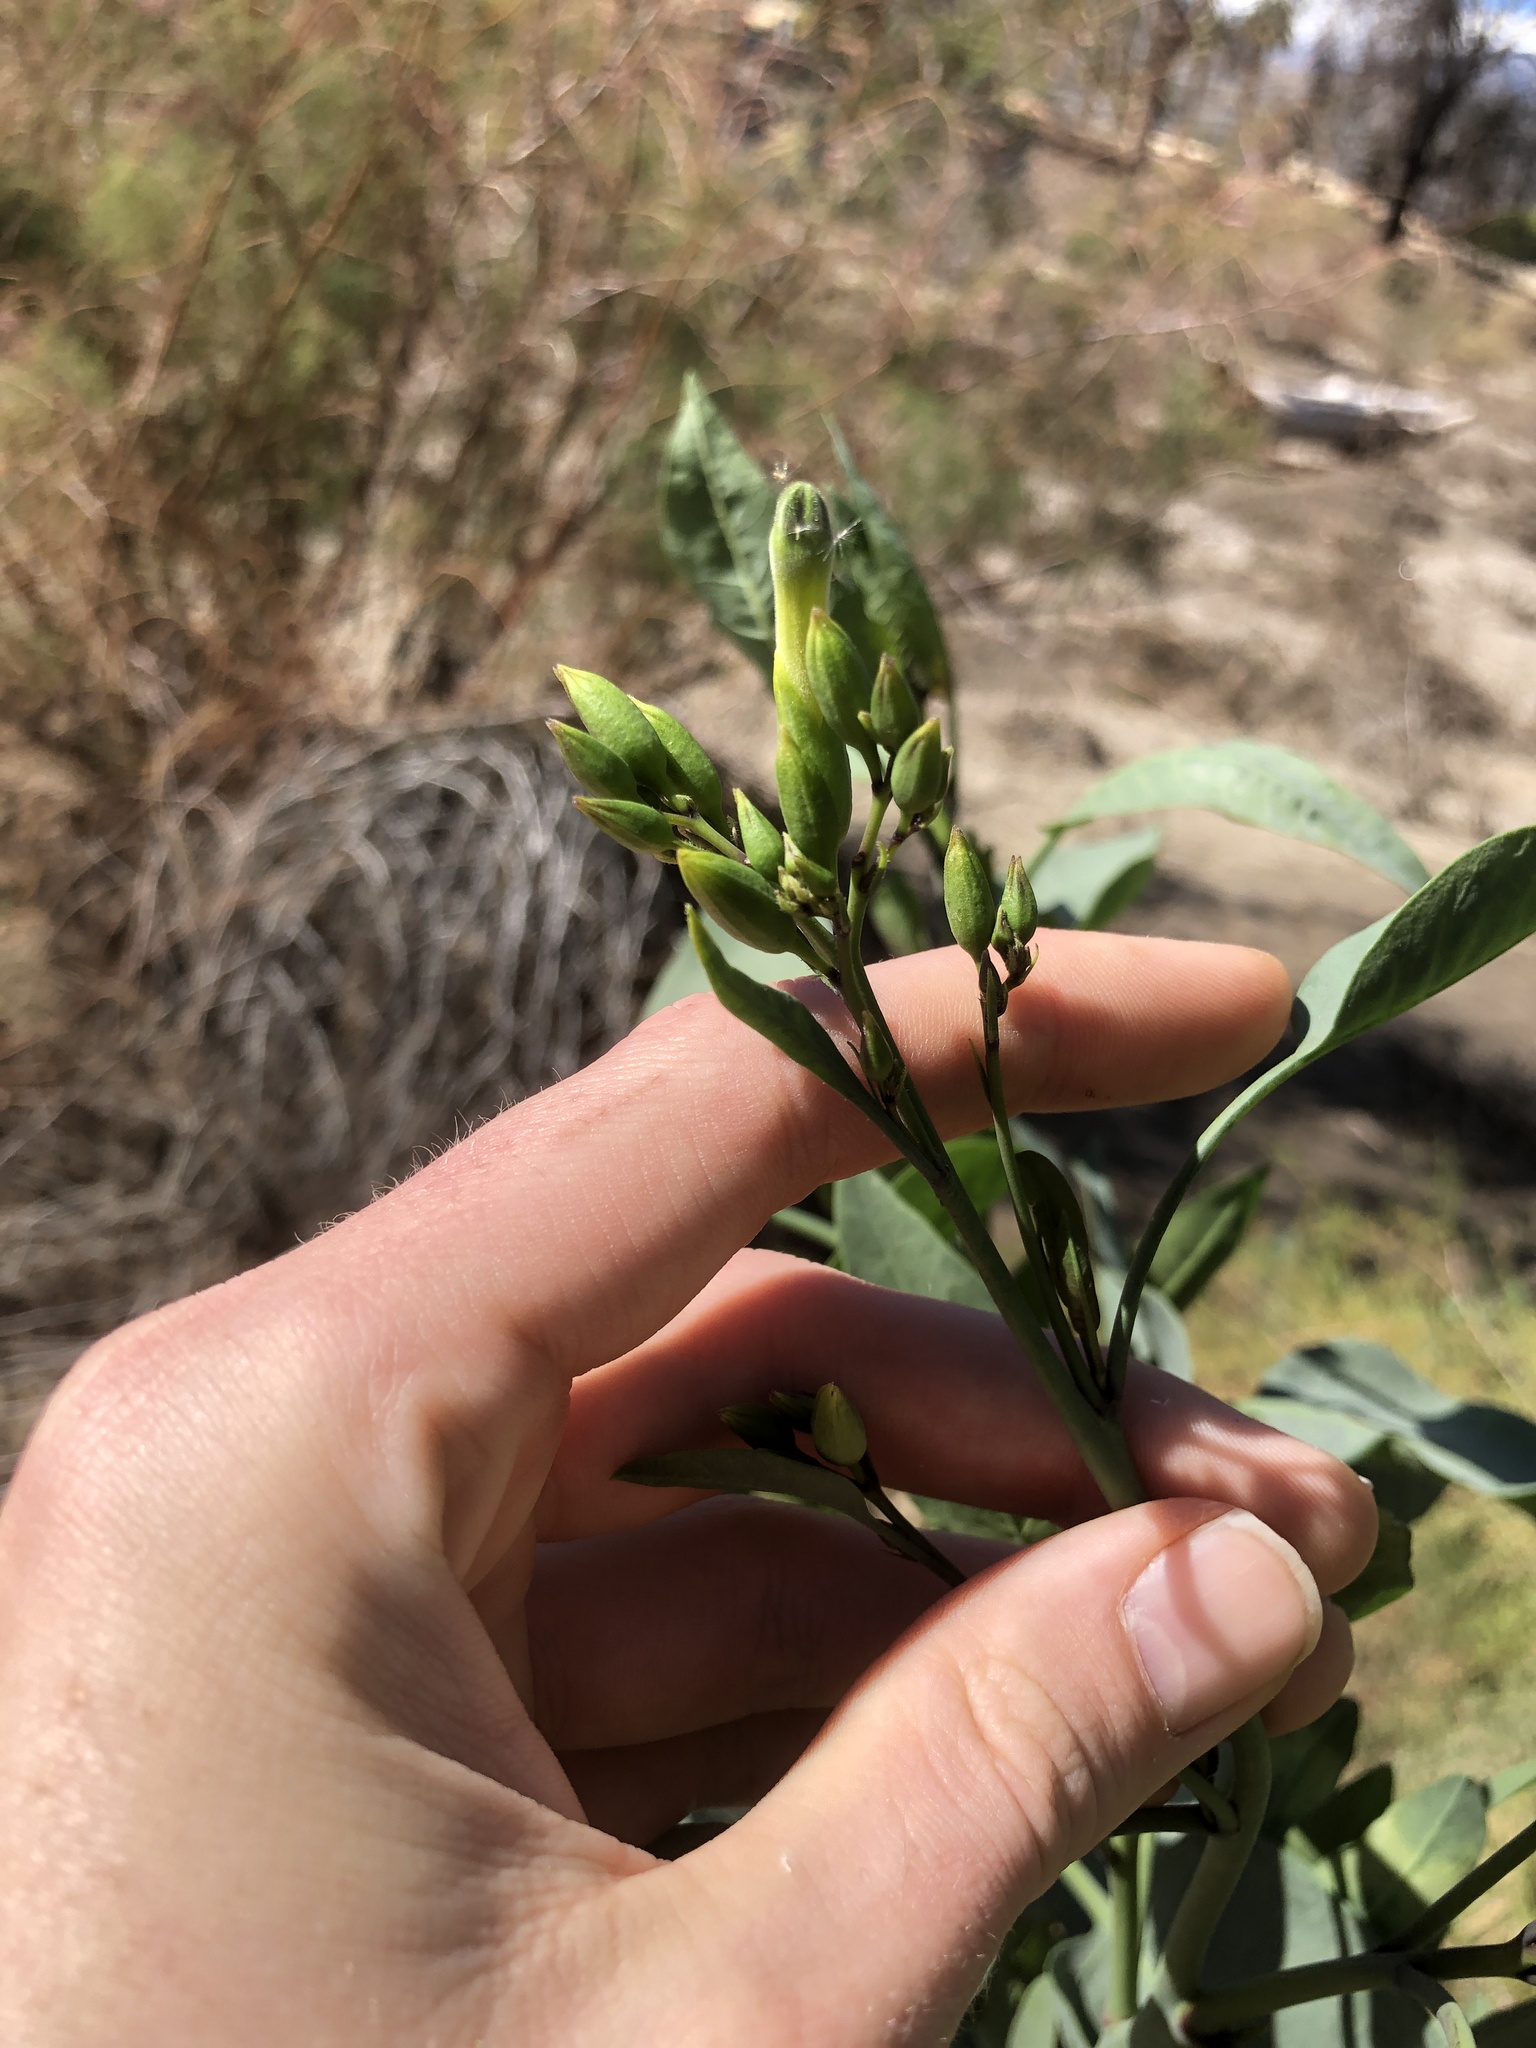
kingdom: Plantae
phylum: Tracheophyta
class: Magnoliopsida
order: Solanales
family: Solanaceae
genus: Nicotiana
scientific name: Nicotiana glauca
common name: Tree tobacco
